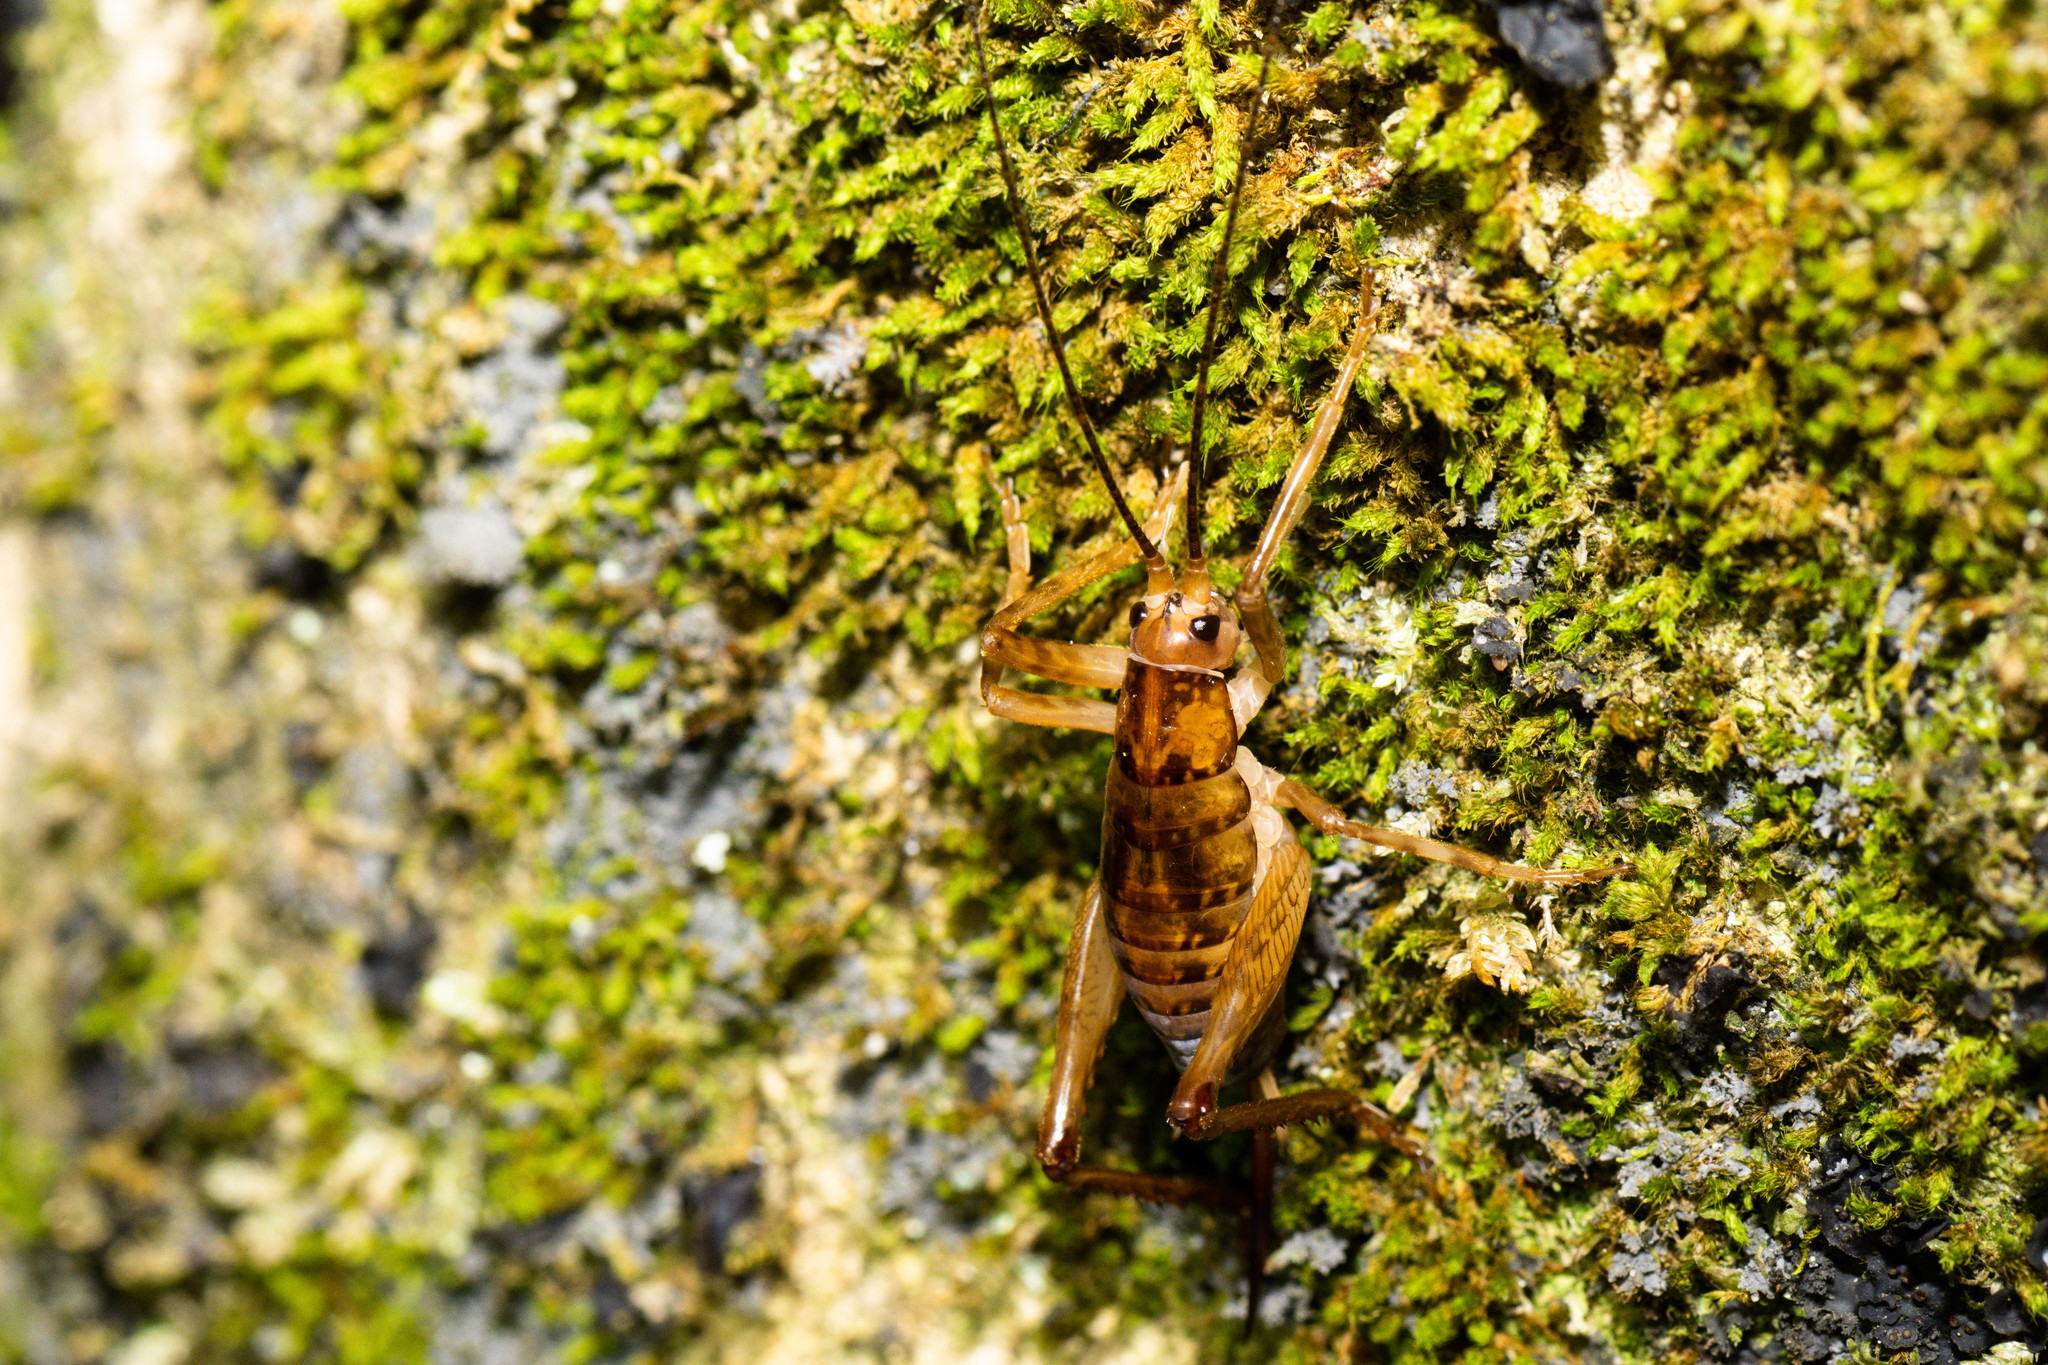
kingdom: Animalia
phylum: Arthropoda
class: Insecta
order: Orthoptera
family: Rhaphidophoridae
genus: Talitropsis
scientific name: Talitropsis sedilloti
